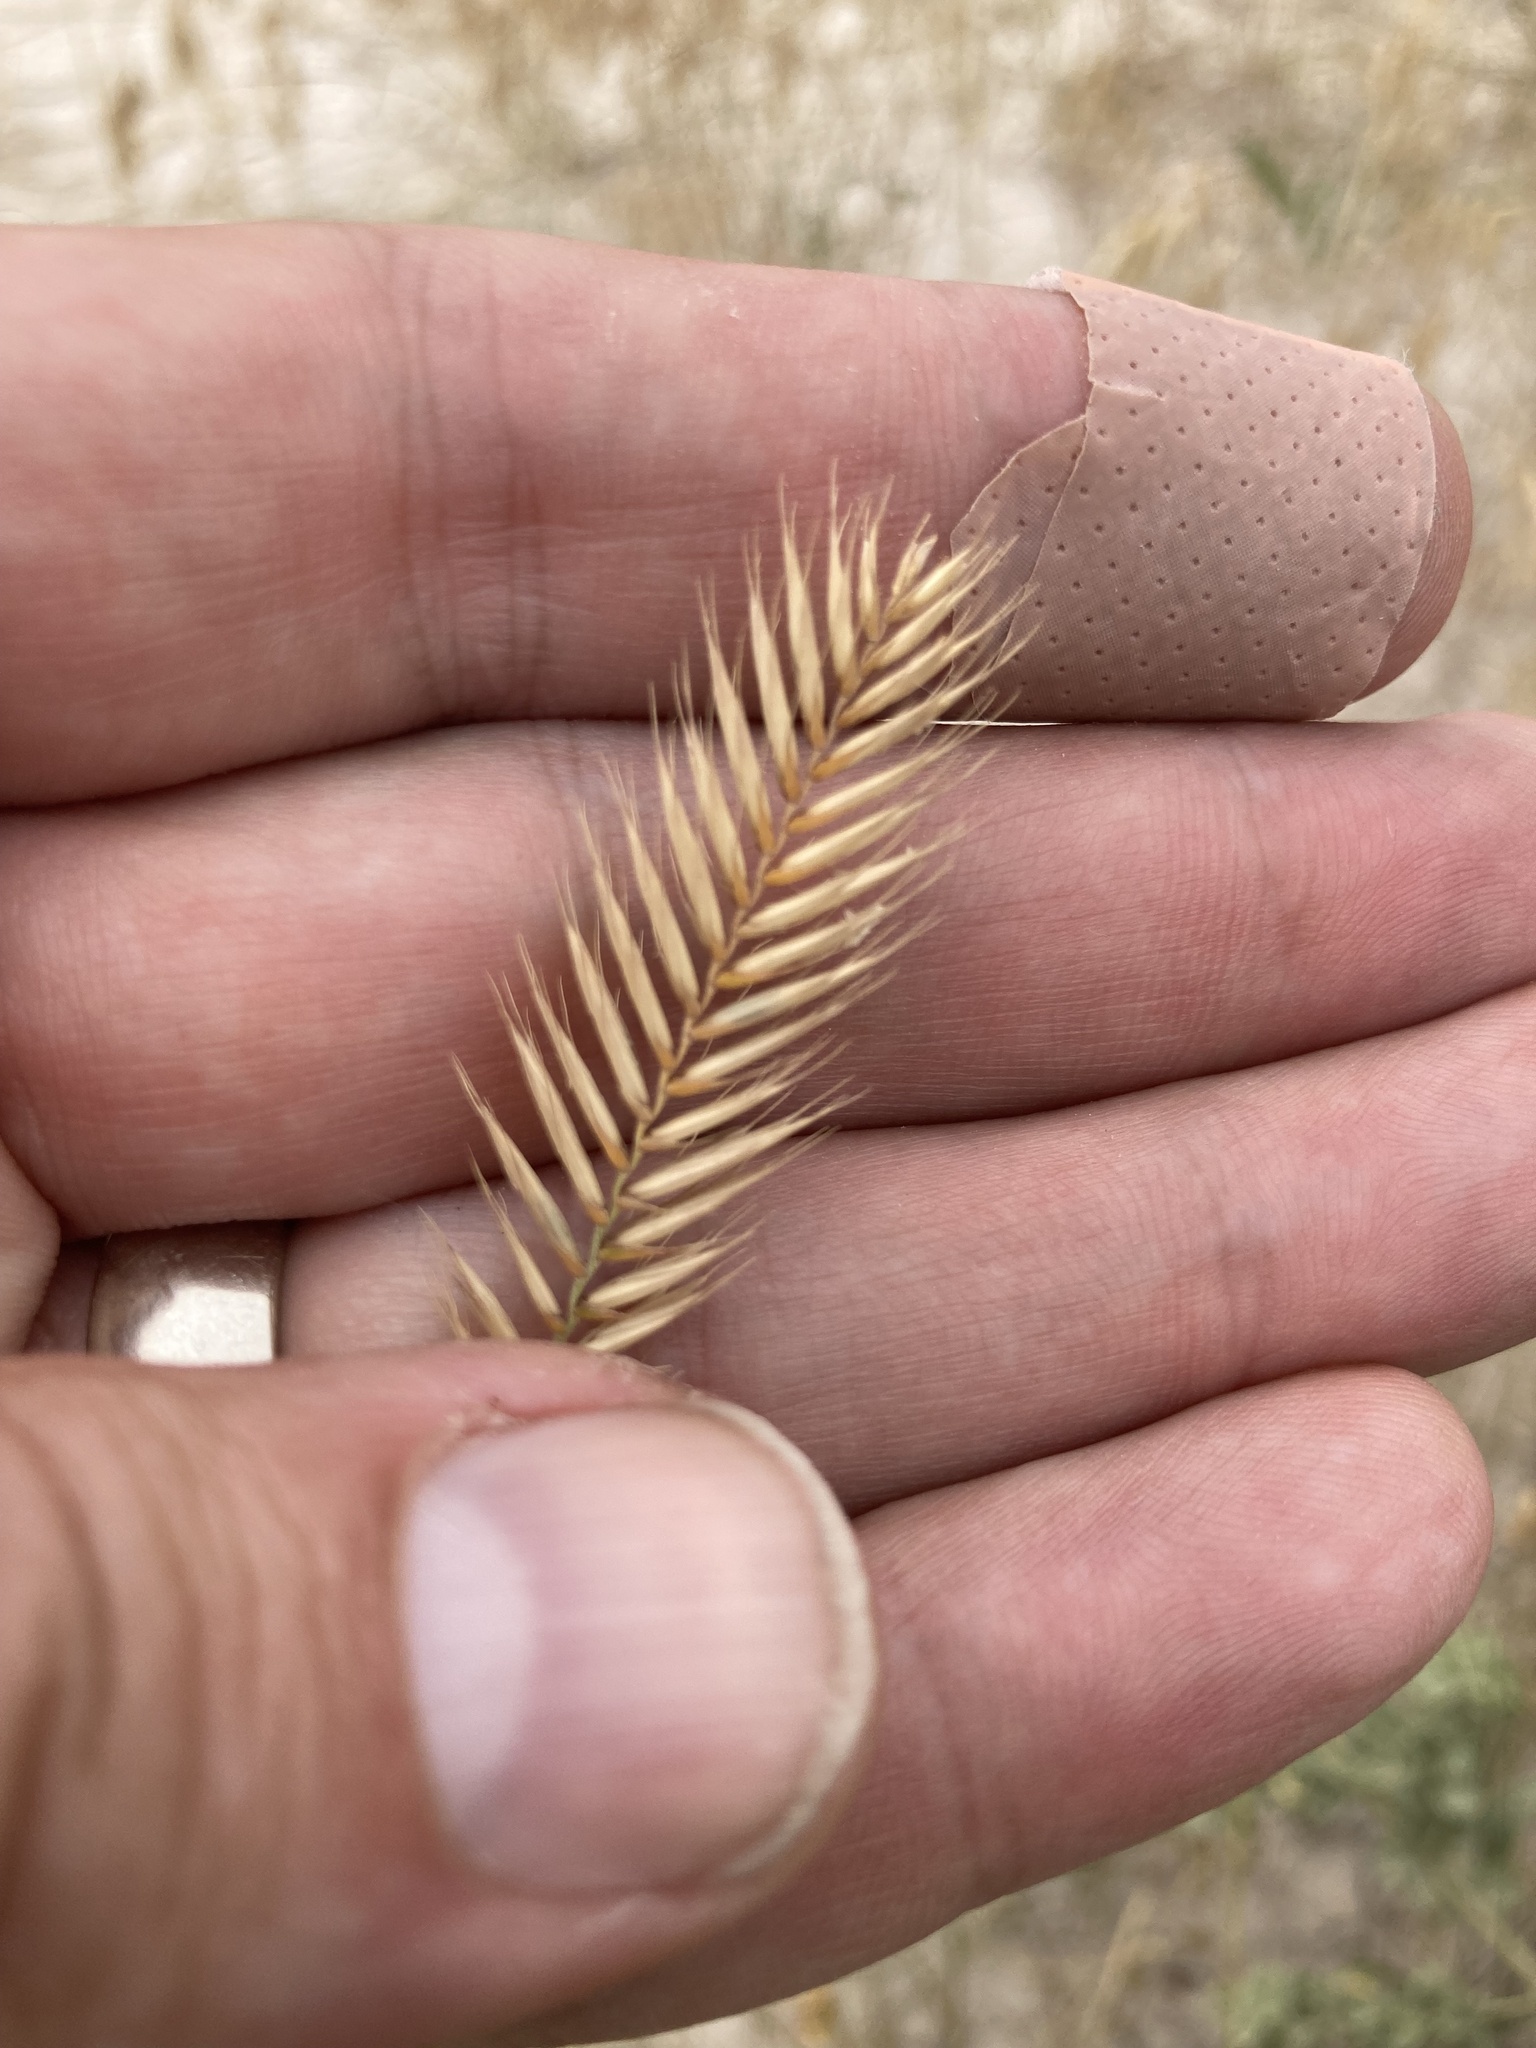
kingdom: Plantae
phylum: Tracheophyta
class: Liliopsida
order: Poales
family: Poaceae
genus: Agropyron
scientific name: Agropyron cristatum
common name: Crested wheatgrass
